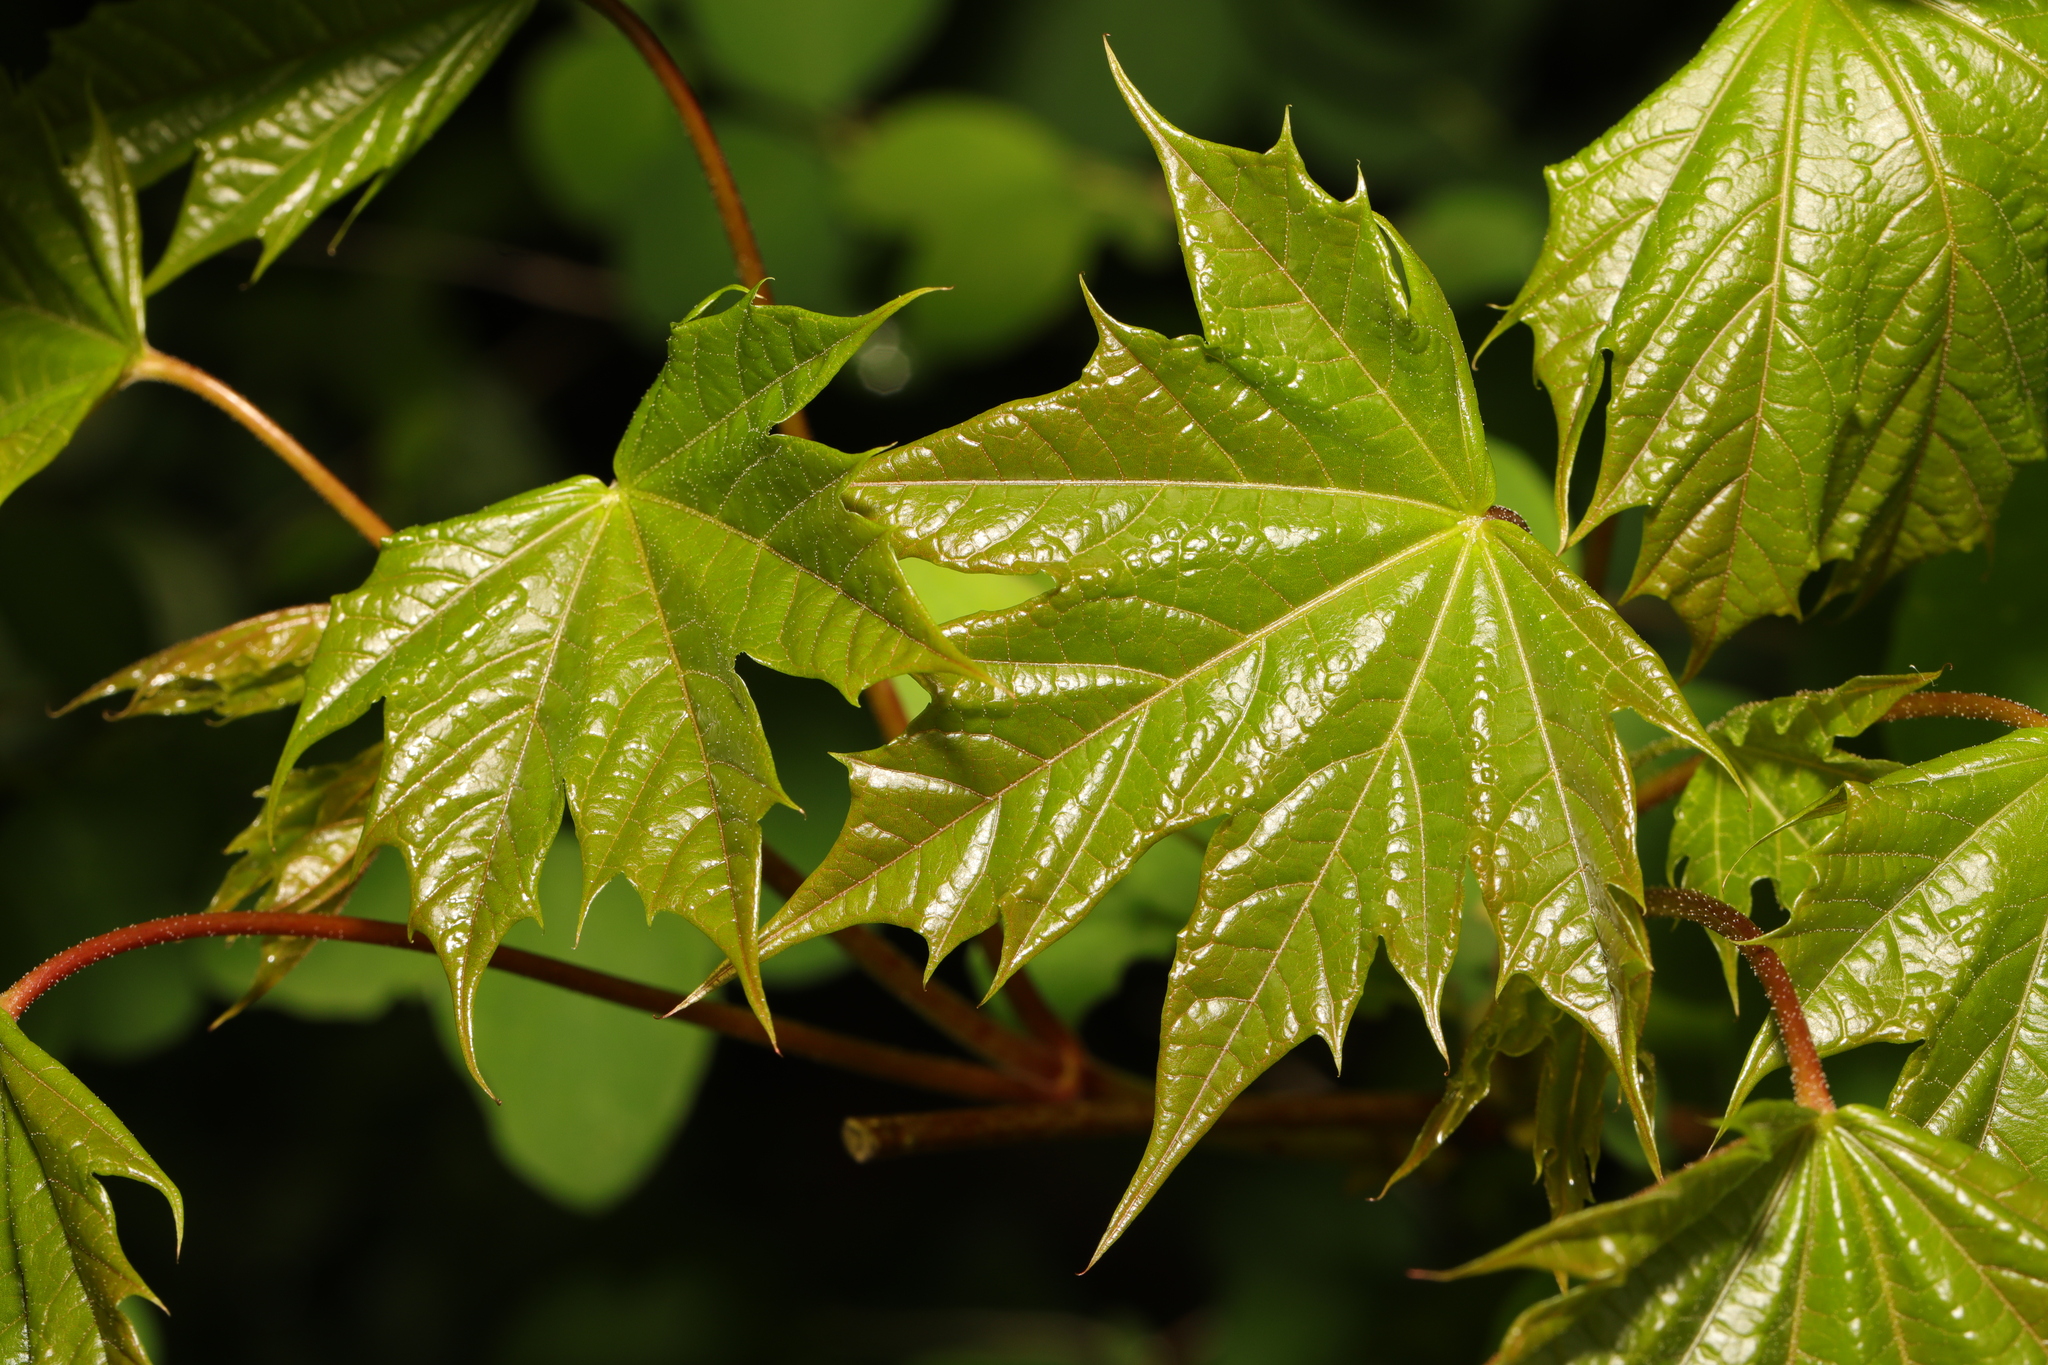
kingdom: Plantae
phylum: Tracheophyta
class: Magnoliopsida
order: Sapindales
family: Sapindaceae
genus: Acer
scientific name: Acer platanoides
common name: Norway maple
